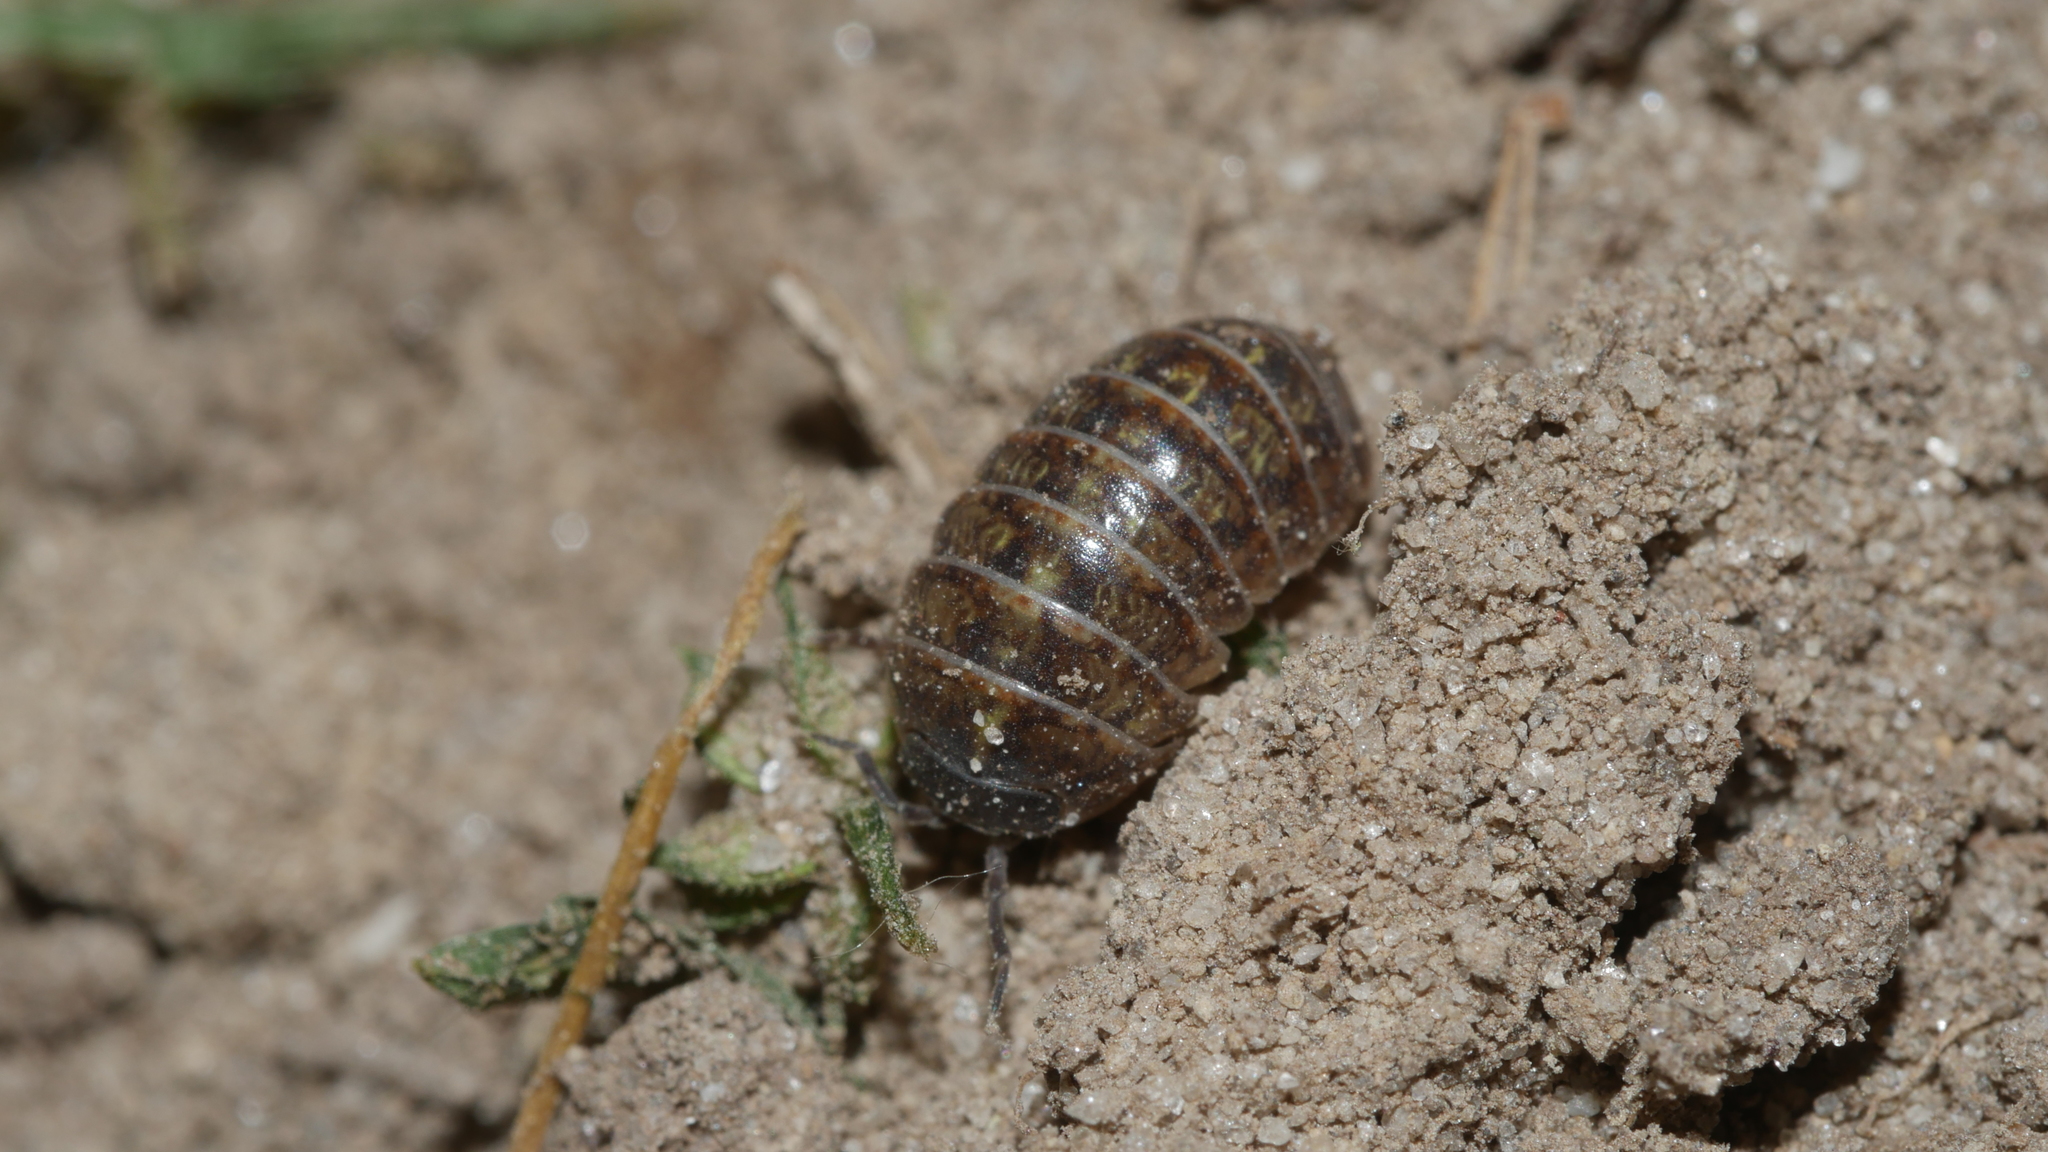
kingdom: Animalia
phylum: Arthropoda
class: Malacostraca
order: Isopoda
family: Armadillidiidae
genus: Armadillidium
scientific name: Armadillidium vulgare
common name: Common pill woodlouse
